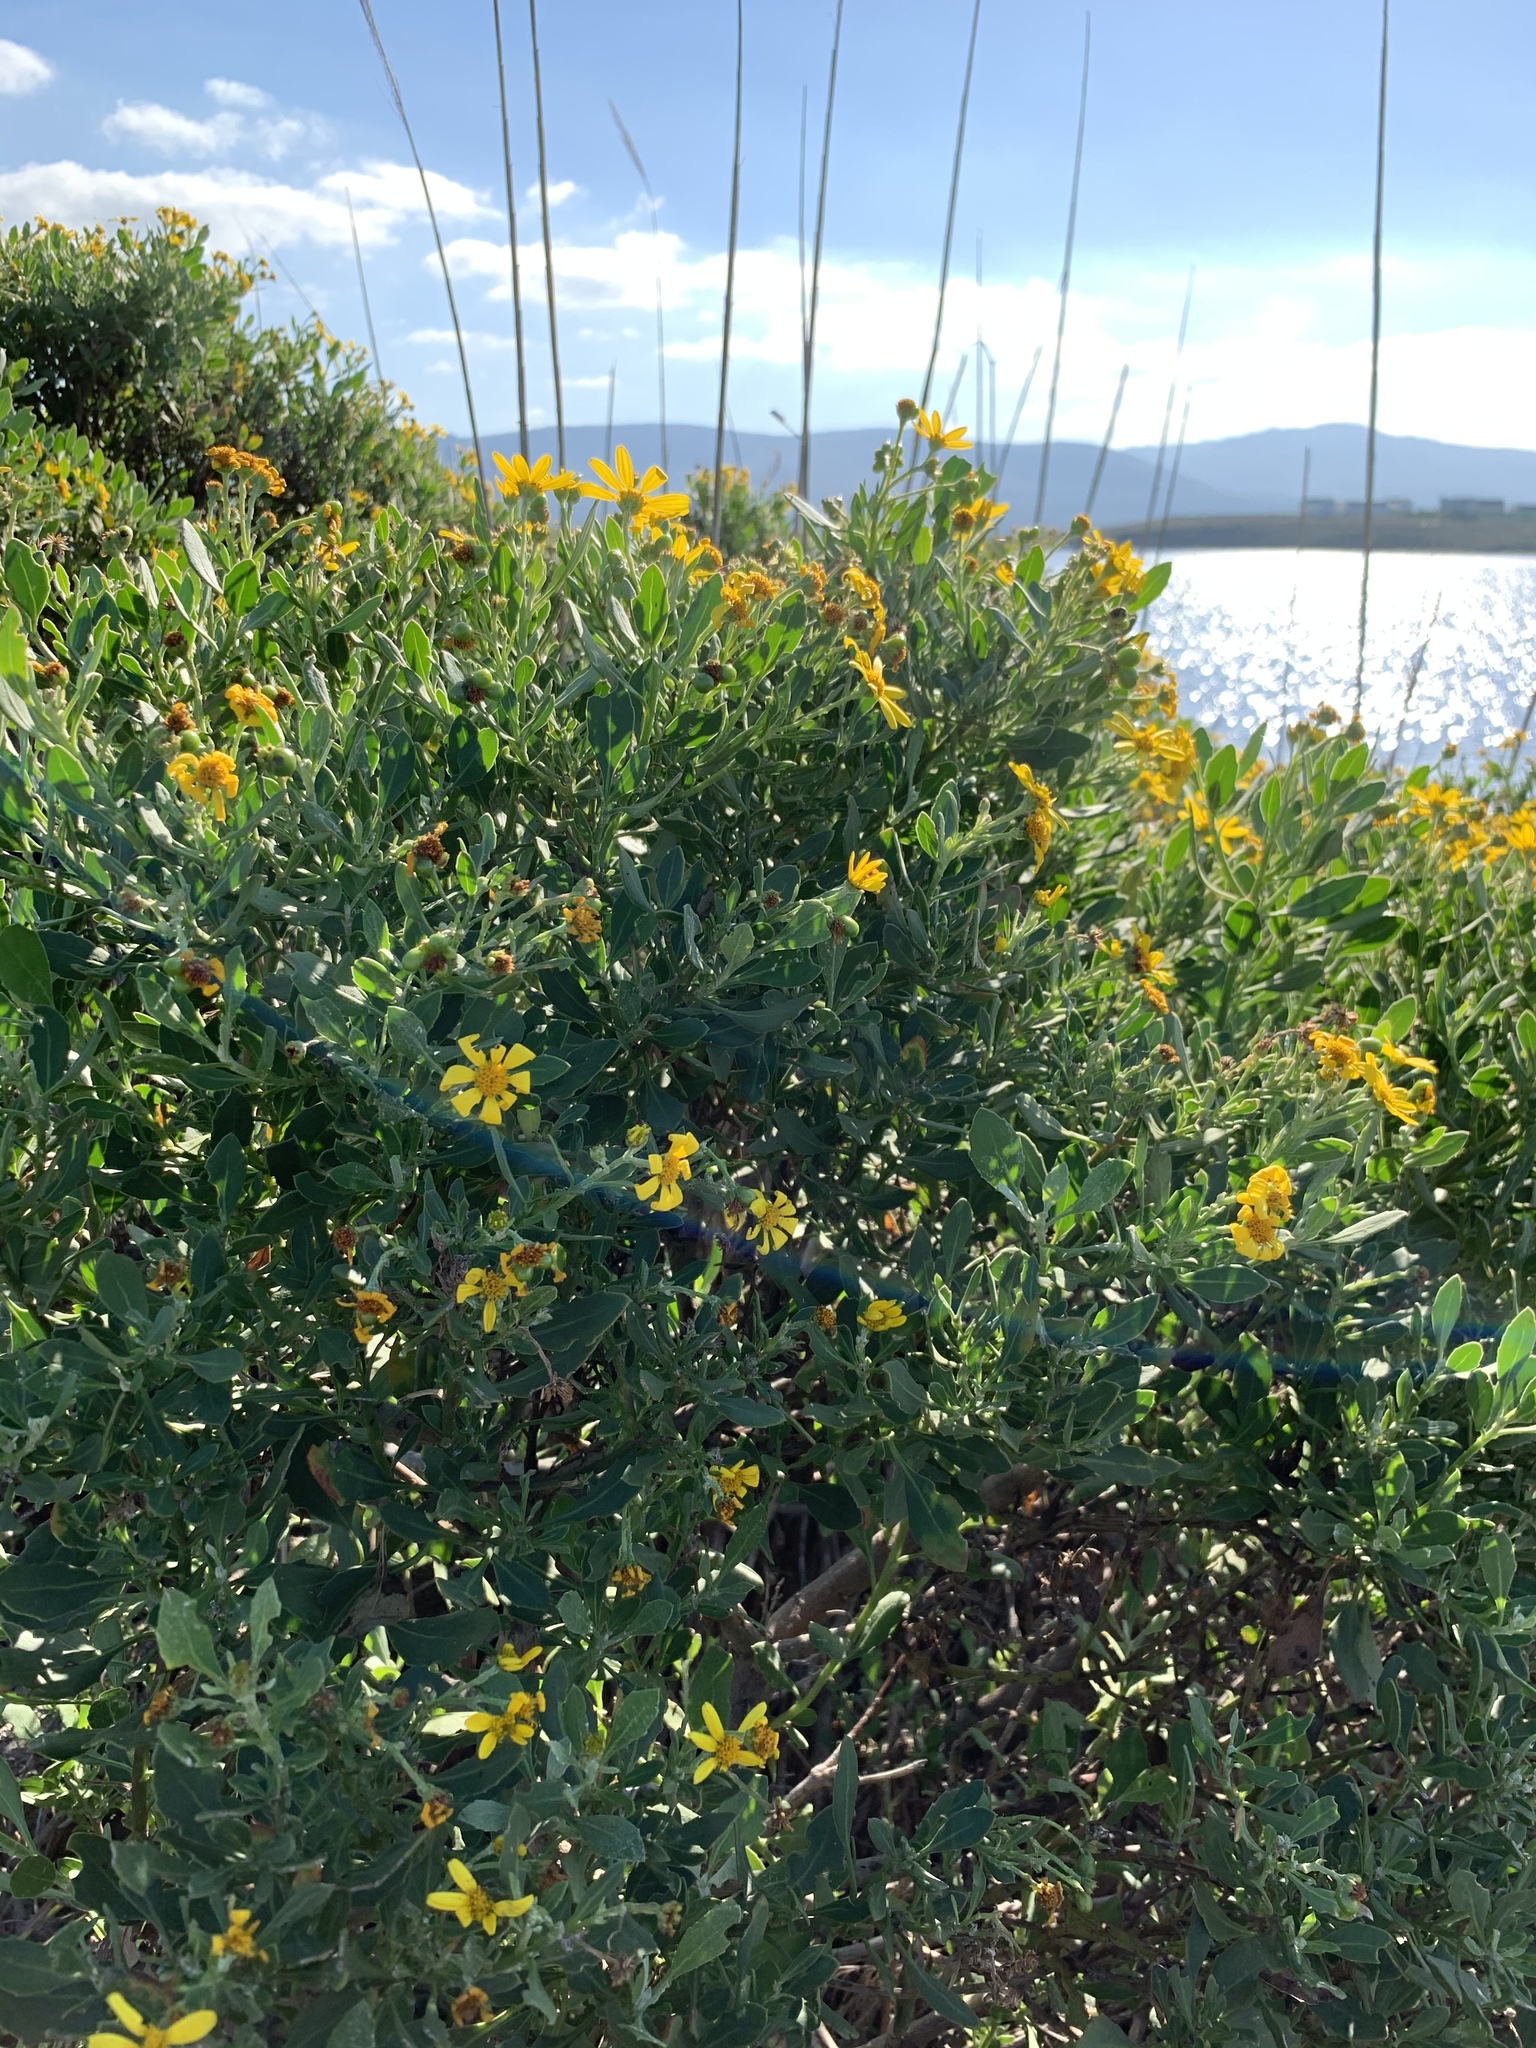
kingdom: Plantae
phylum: Tracheophyta
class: Magnoliopsida
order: Asterales
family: Asteraceae
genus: Osteospermum
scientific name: Osteospermum moniliferum
